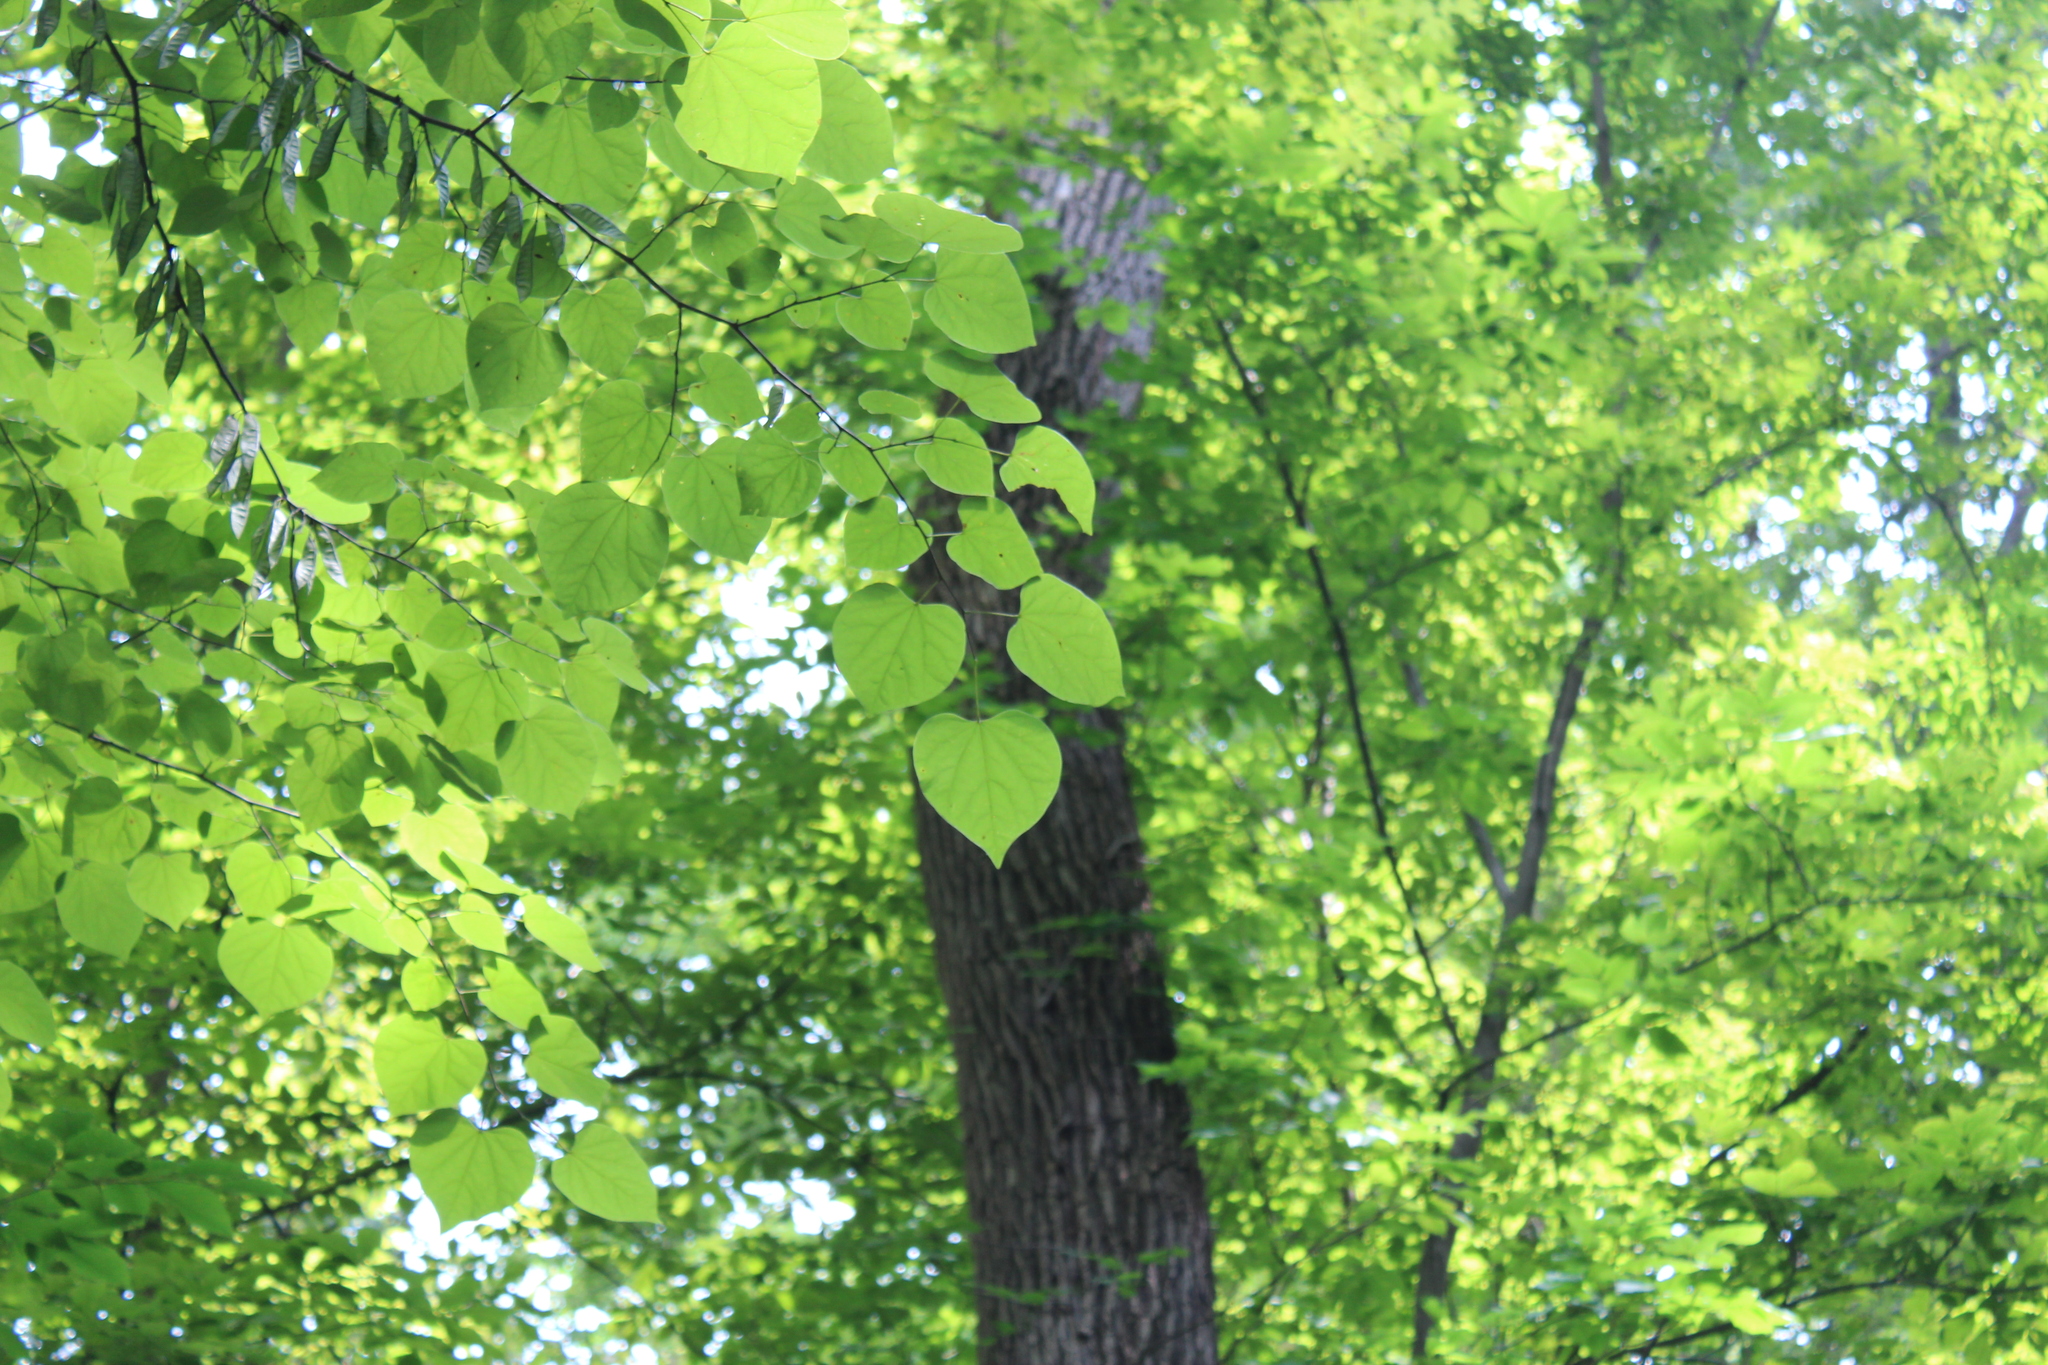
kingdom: Plantae
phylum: Tracheophyta
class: Magnoliopsida
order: Fabales
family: Fabaceae
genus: Cercis
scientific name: Cercis canadensis
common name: Eastern redbud
